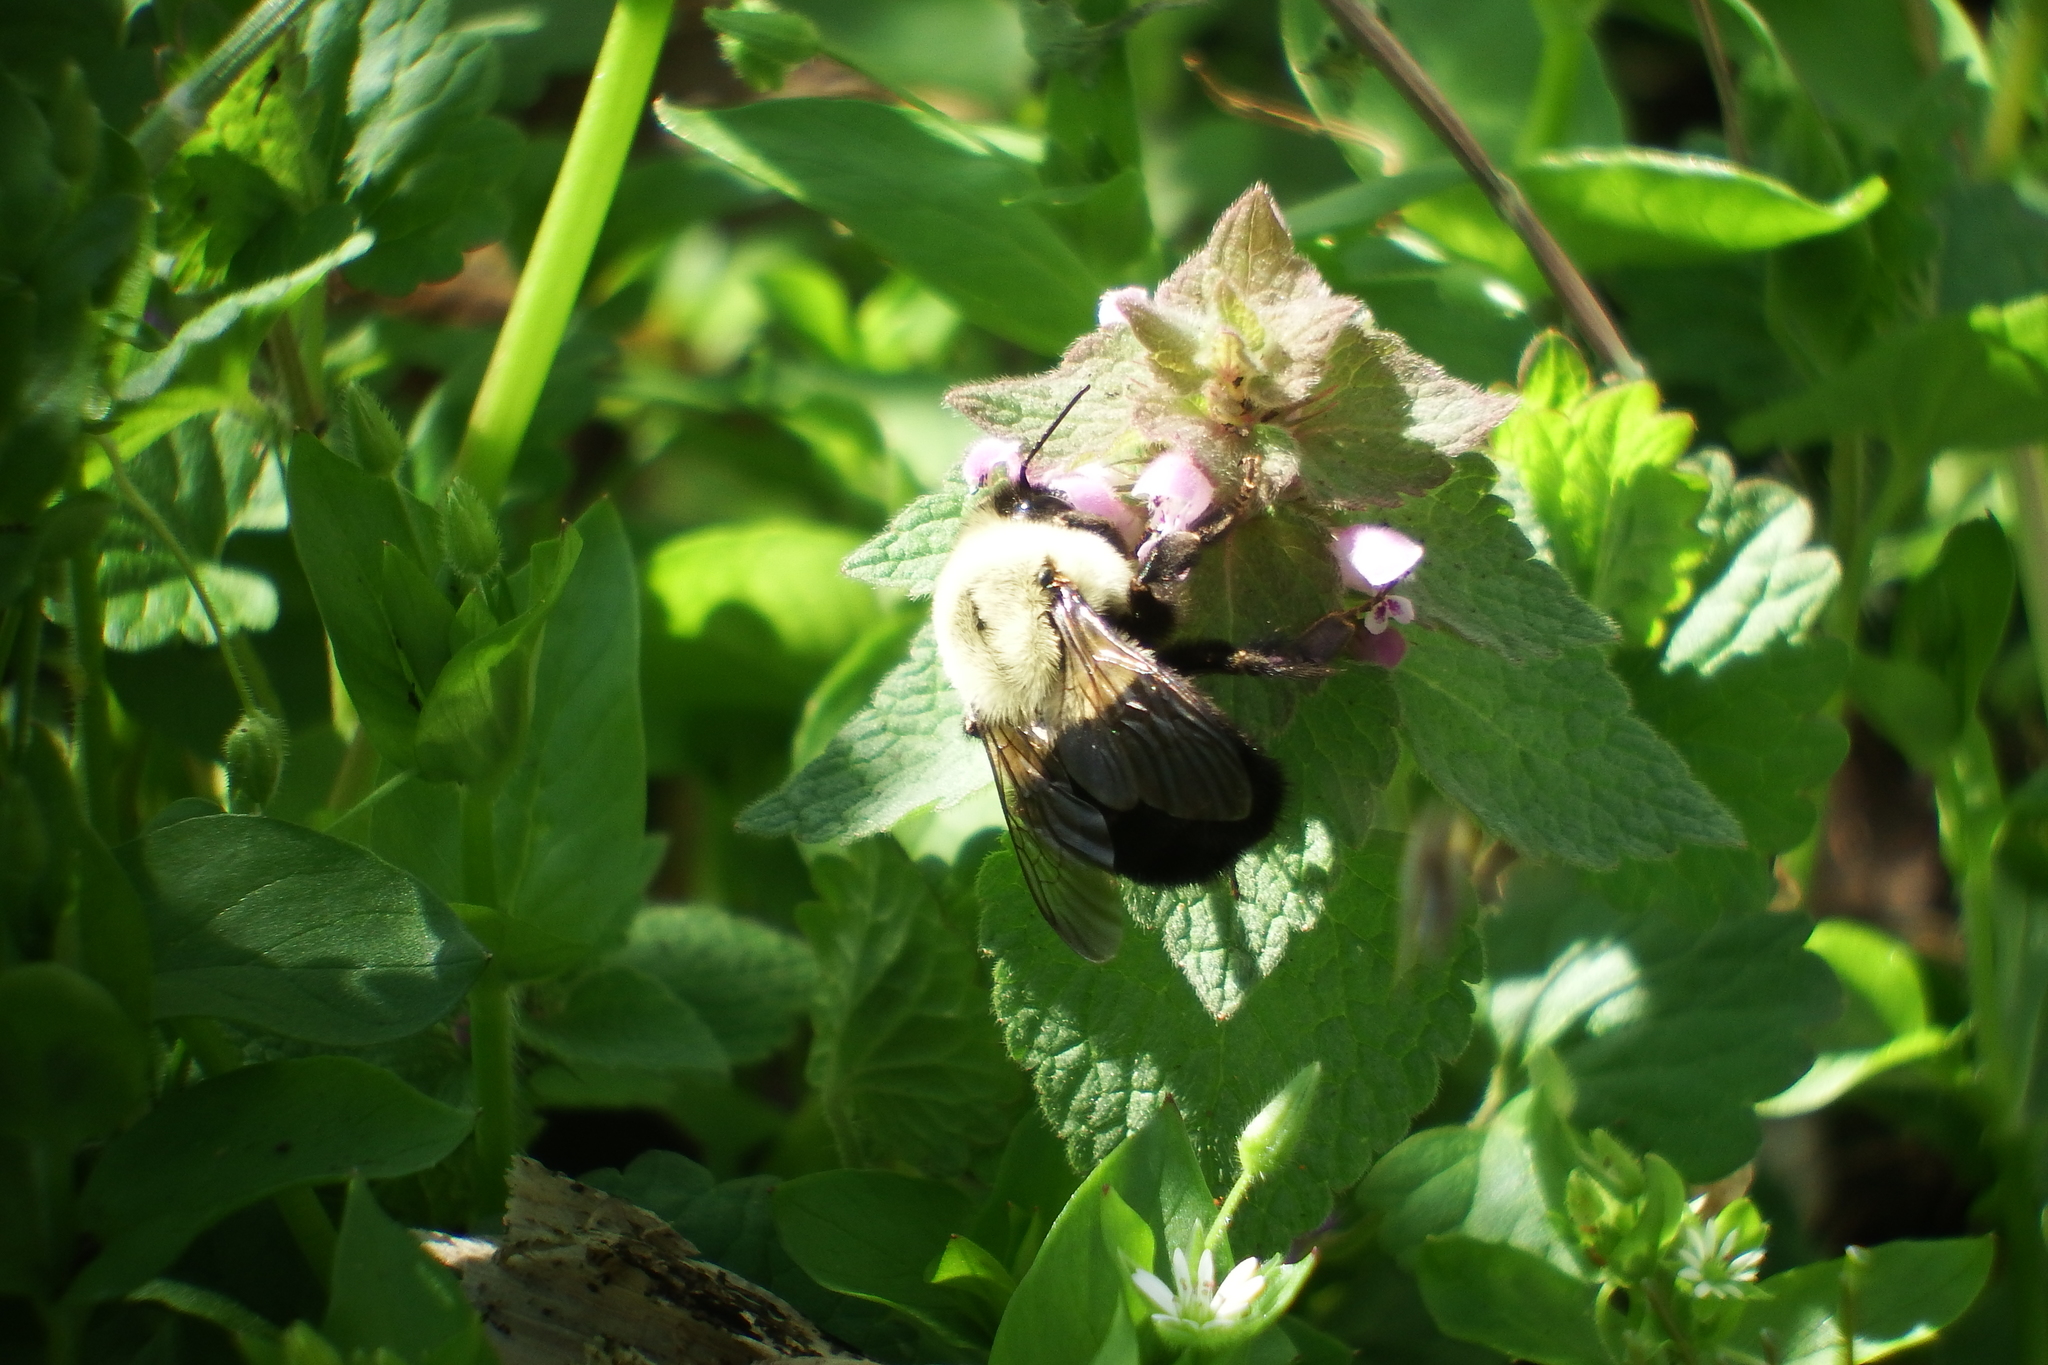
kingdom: Animalia
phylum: Arthropoda
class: Insecta
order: Hymenoptera
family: Apidae
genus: Bombus
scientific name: Bombus impatiens
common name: Common eastern bumble bee
